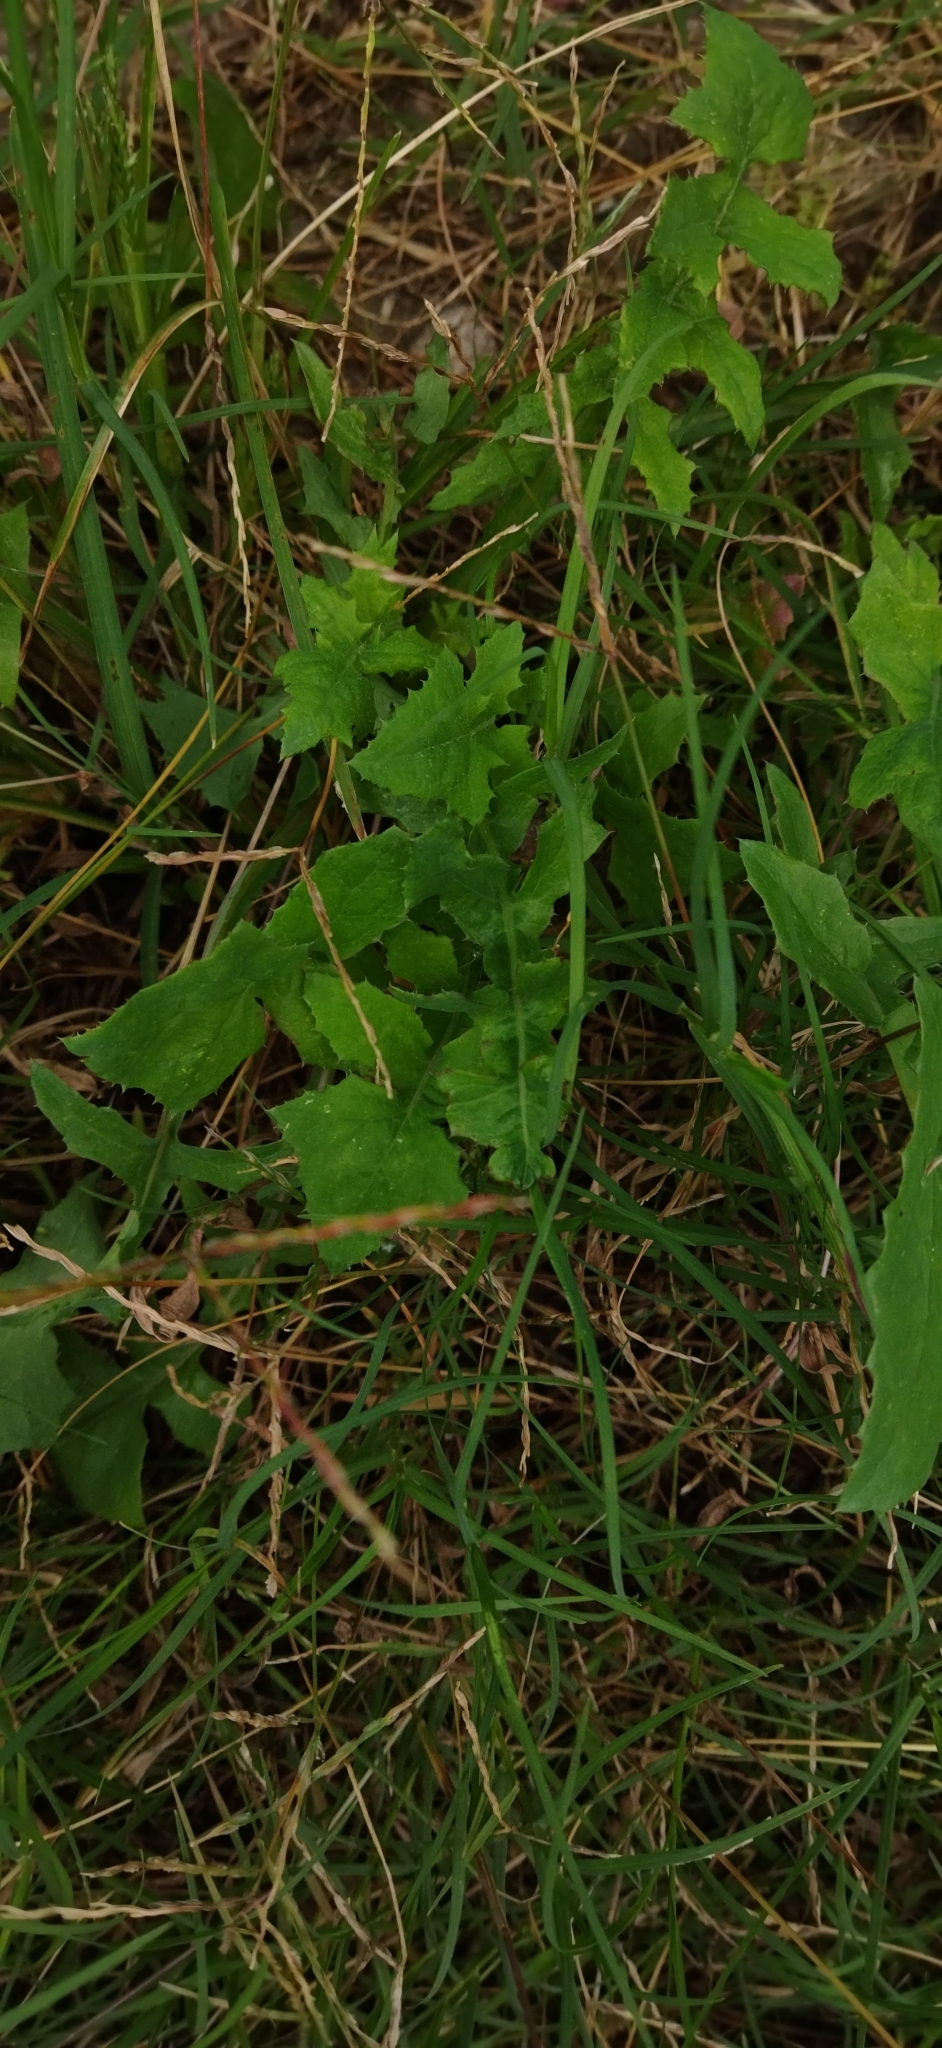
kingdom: Plantae
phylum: Tracheophyta
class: Magnoliopsida
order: Asterales
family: Asteraceae
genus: Sonchus
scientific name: Sonchus oleraceus
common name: Common sowthistle
